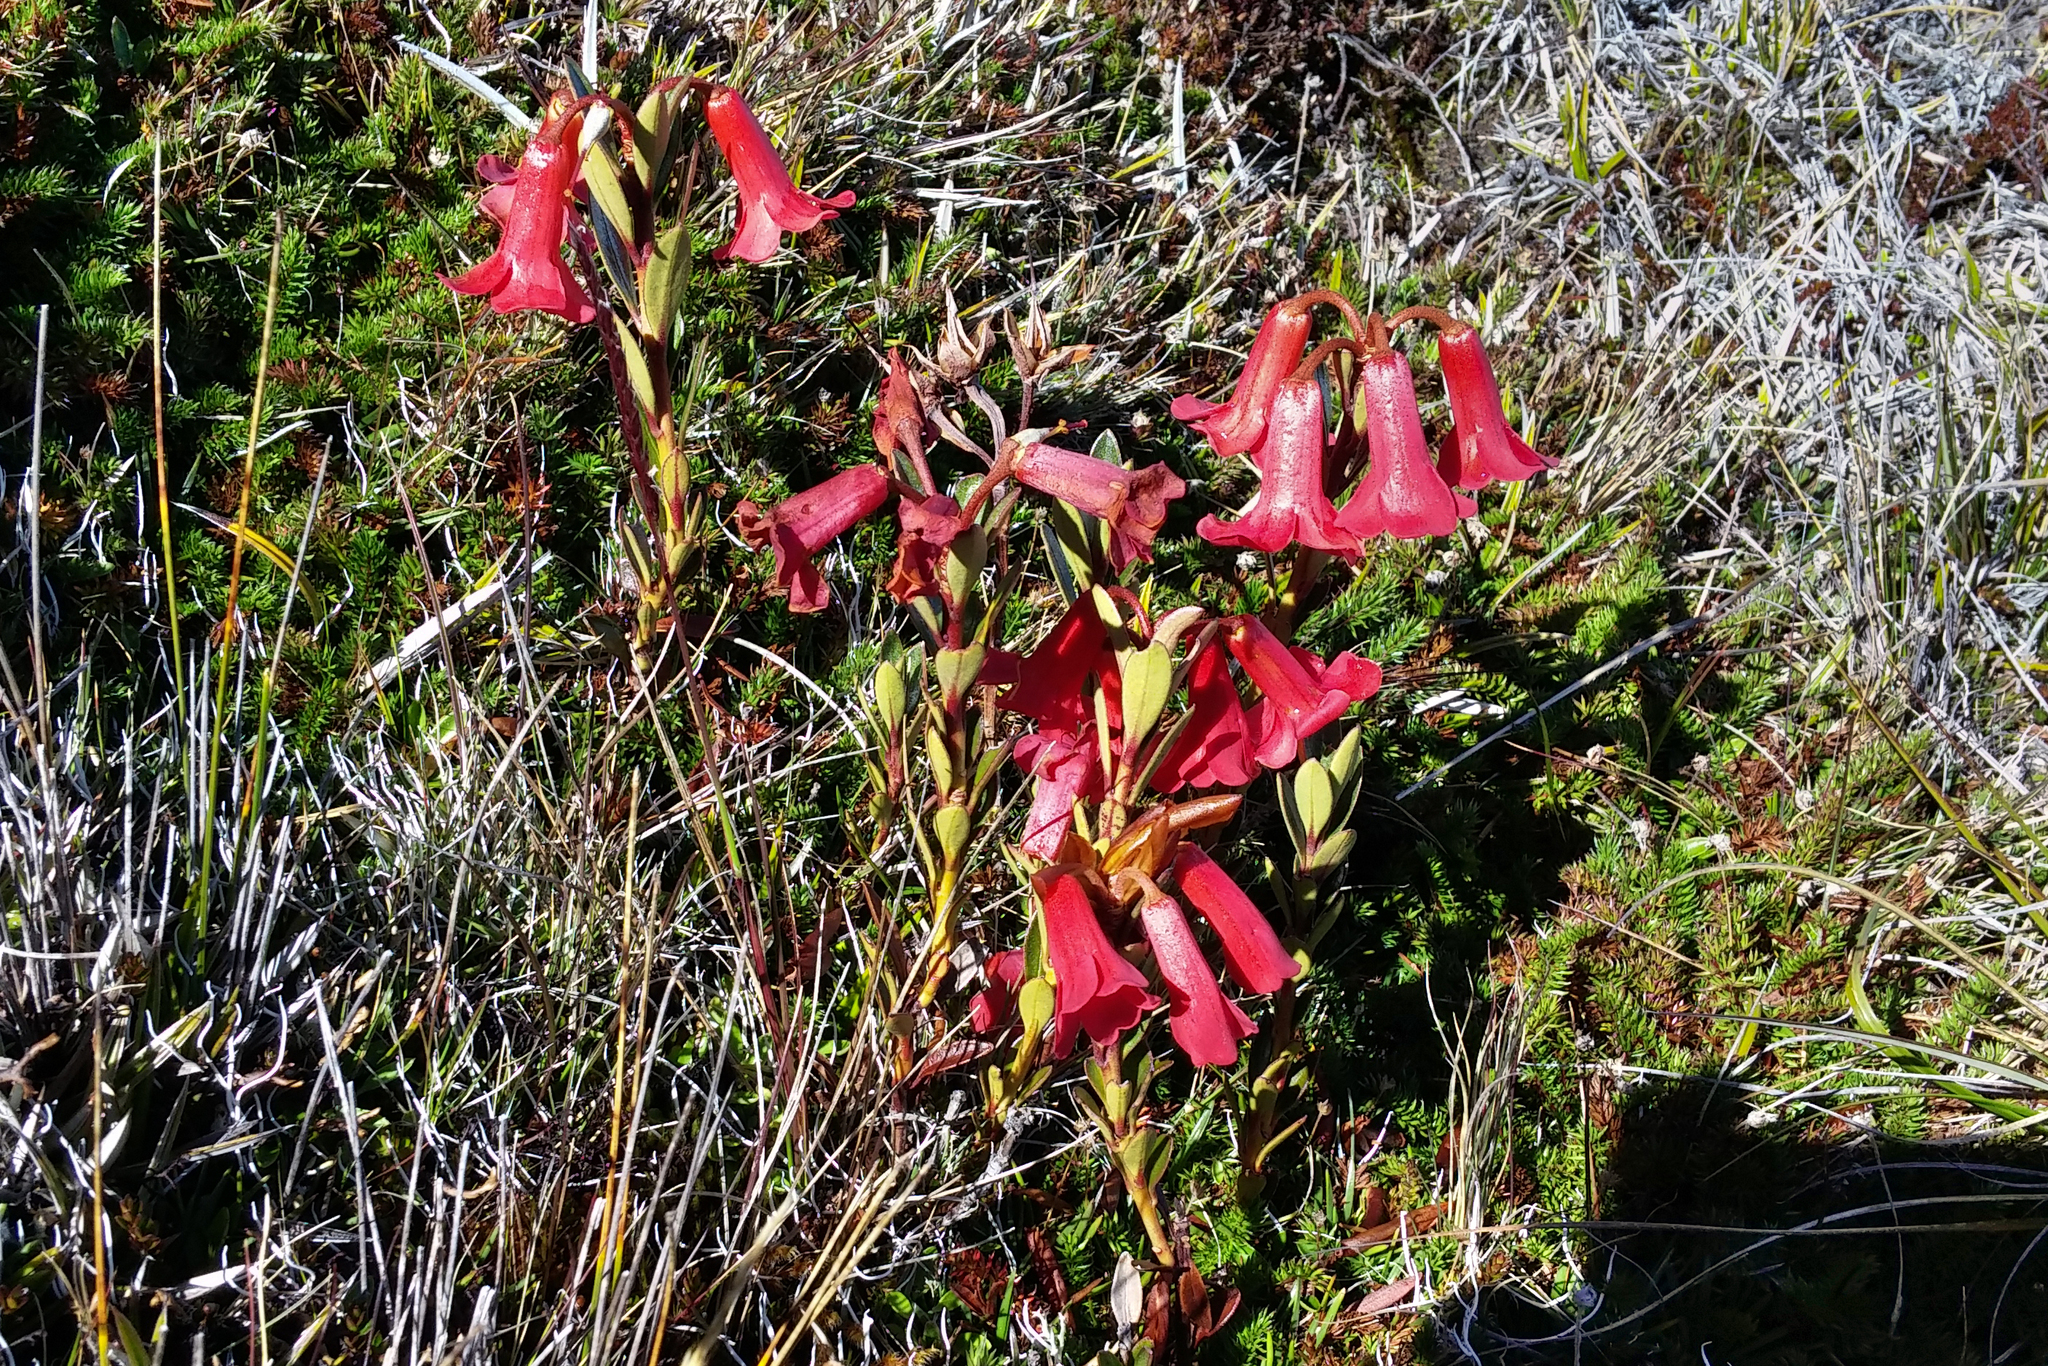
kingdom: Plantae
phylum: Tracheophyta
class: Magnoliopsida
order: Ericales
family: Ericaceae
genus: Rhododendron
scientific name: Rhododendron beyerinckianum
